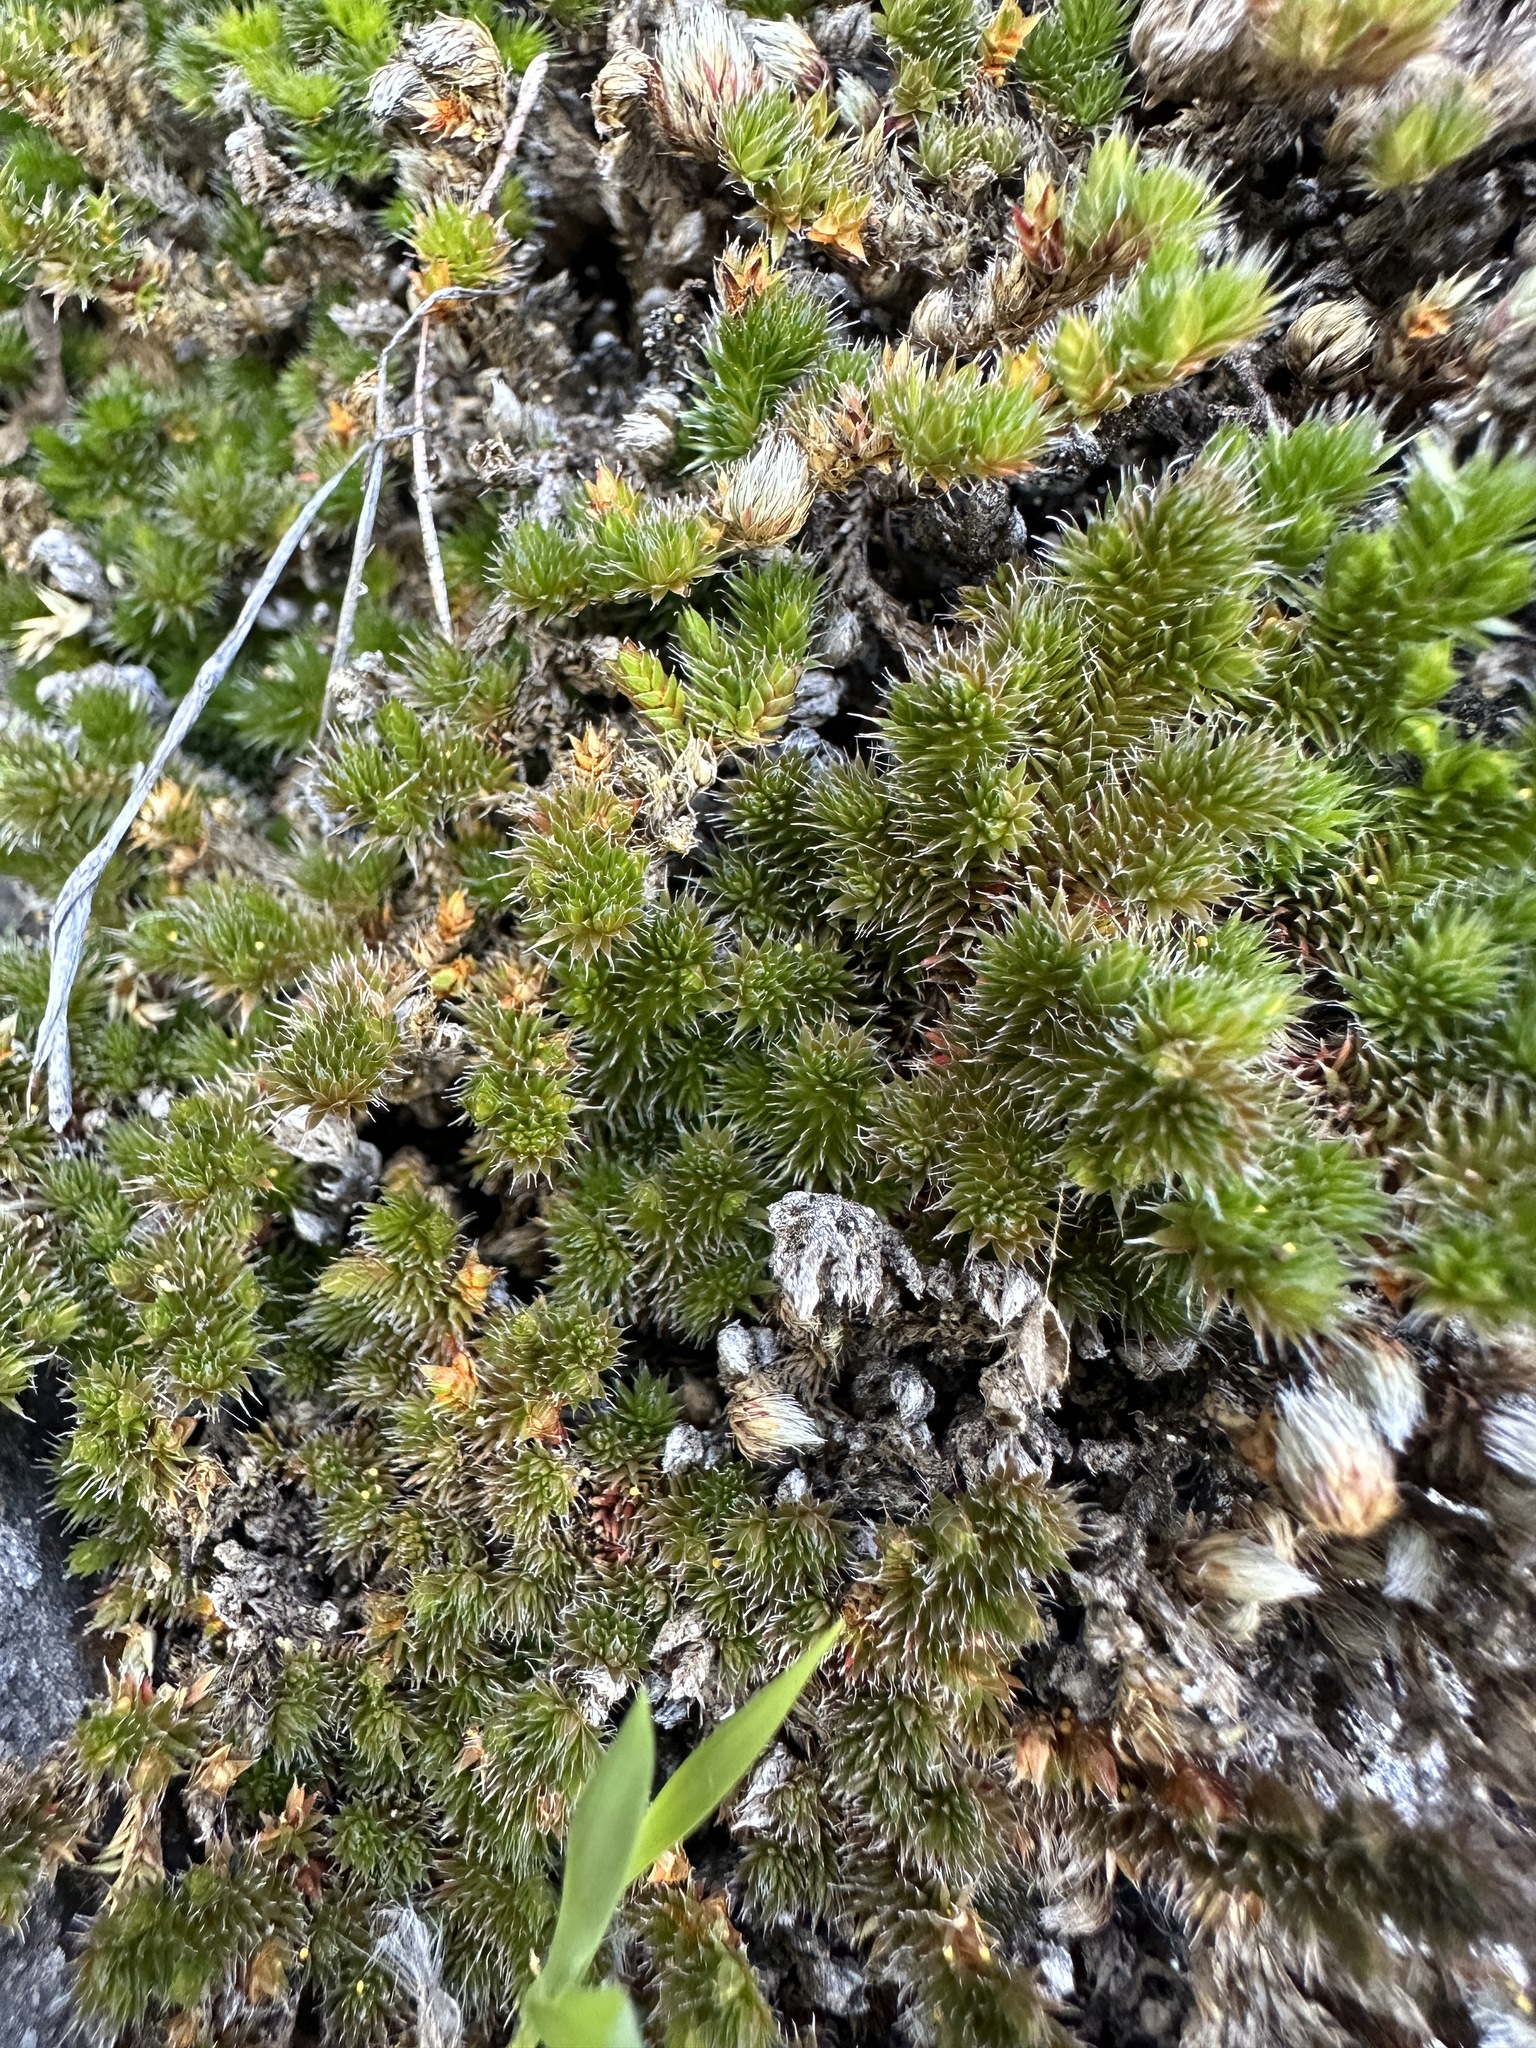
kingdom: Plantae
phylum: Tracheophyta
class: Lycopodiopsida
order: Selaginellales
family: Selaginellaceae
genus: Selaginella
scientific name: Selaginella hansenii
